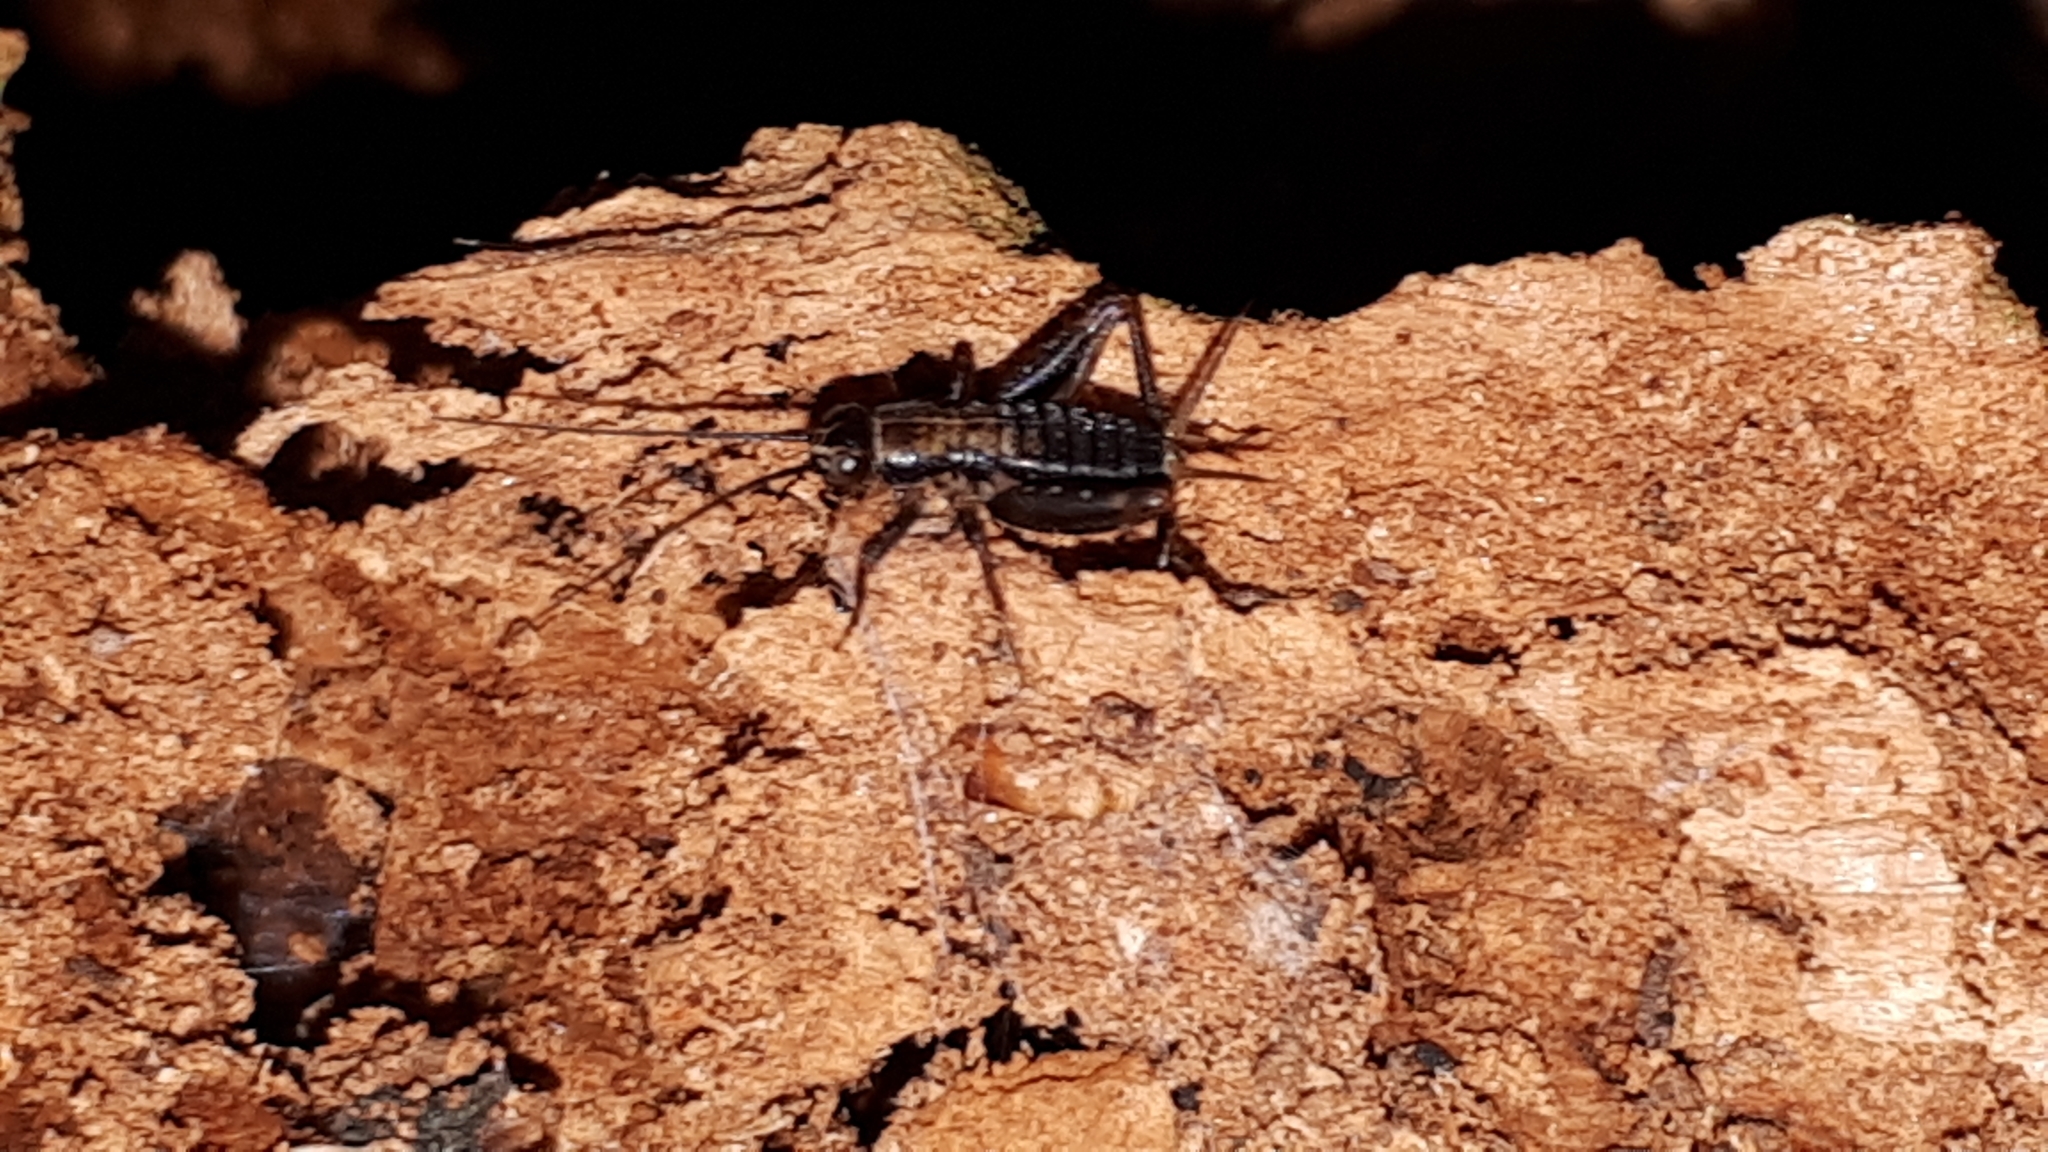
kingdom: Animalia
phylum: Arthropoda
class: Insecta
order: Orthoptera
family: Trigonidiidae
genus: Nemobius
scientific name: Nemobius sylvestris
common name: Wood-cricket
